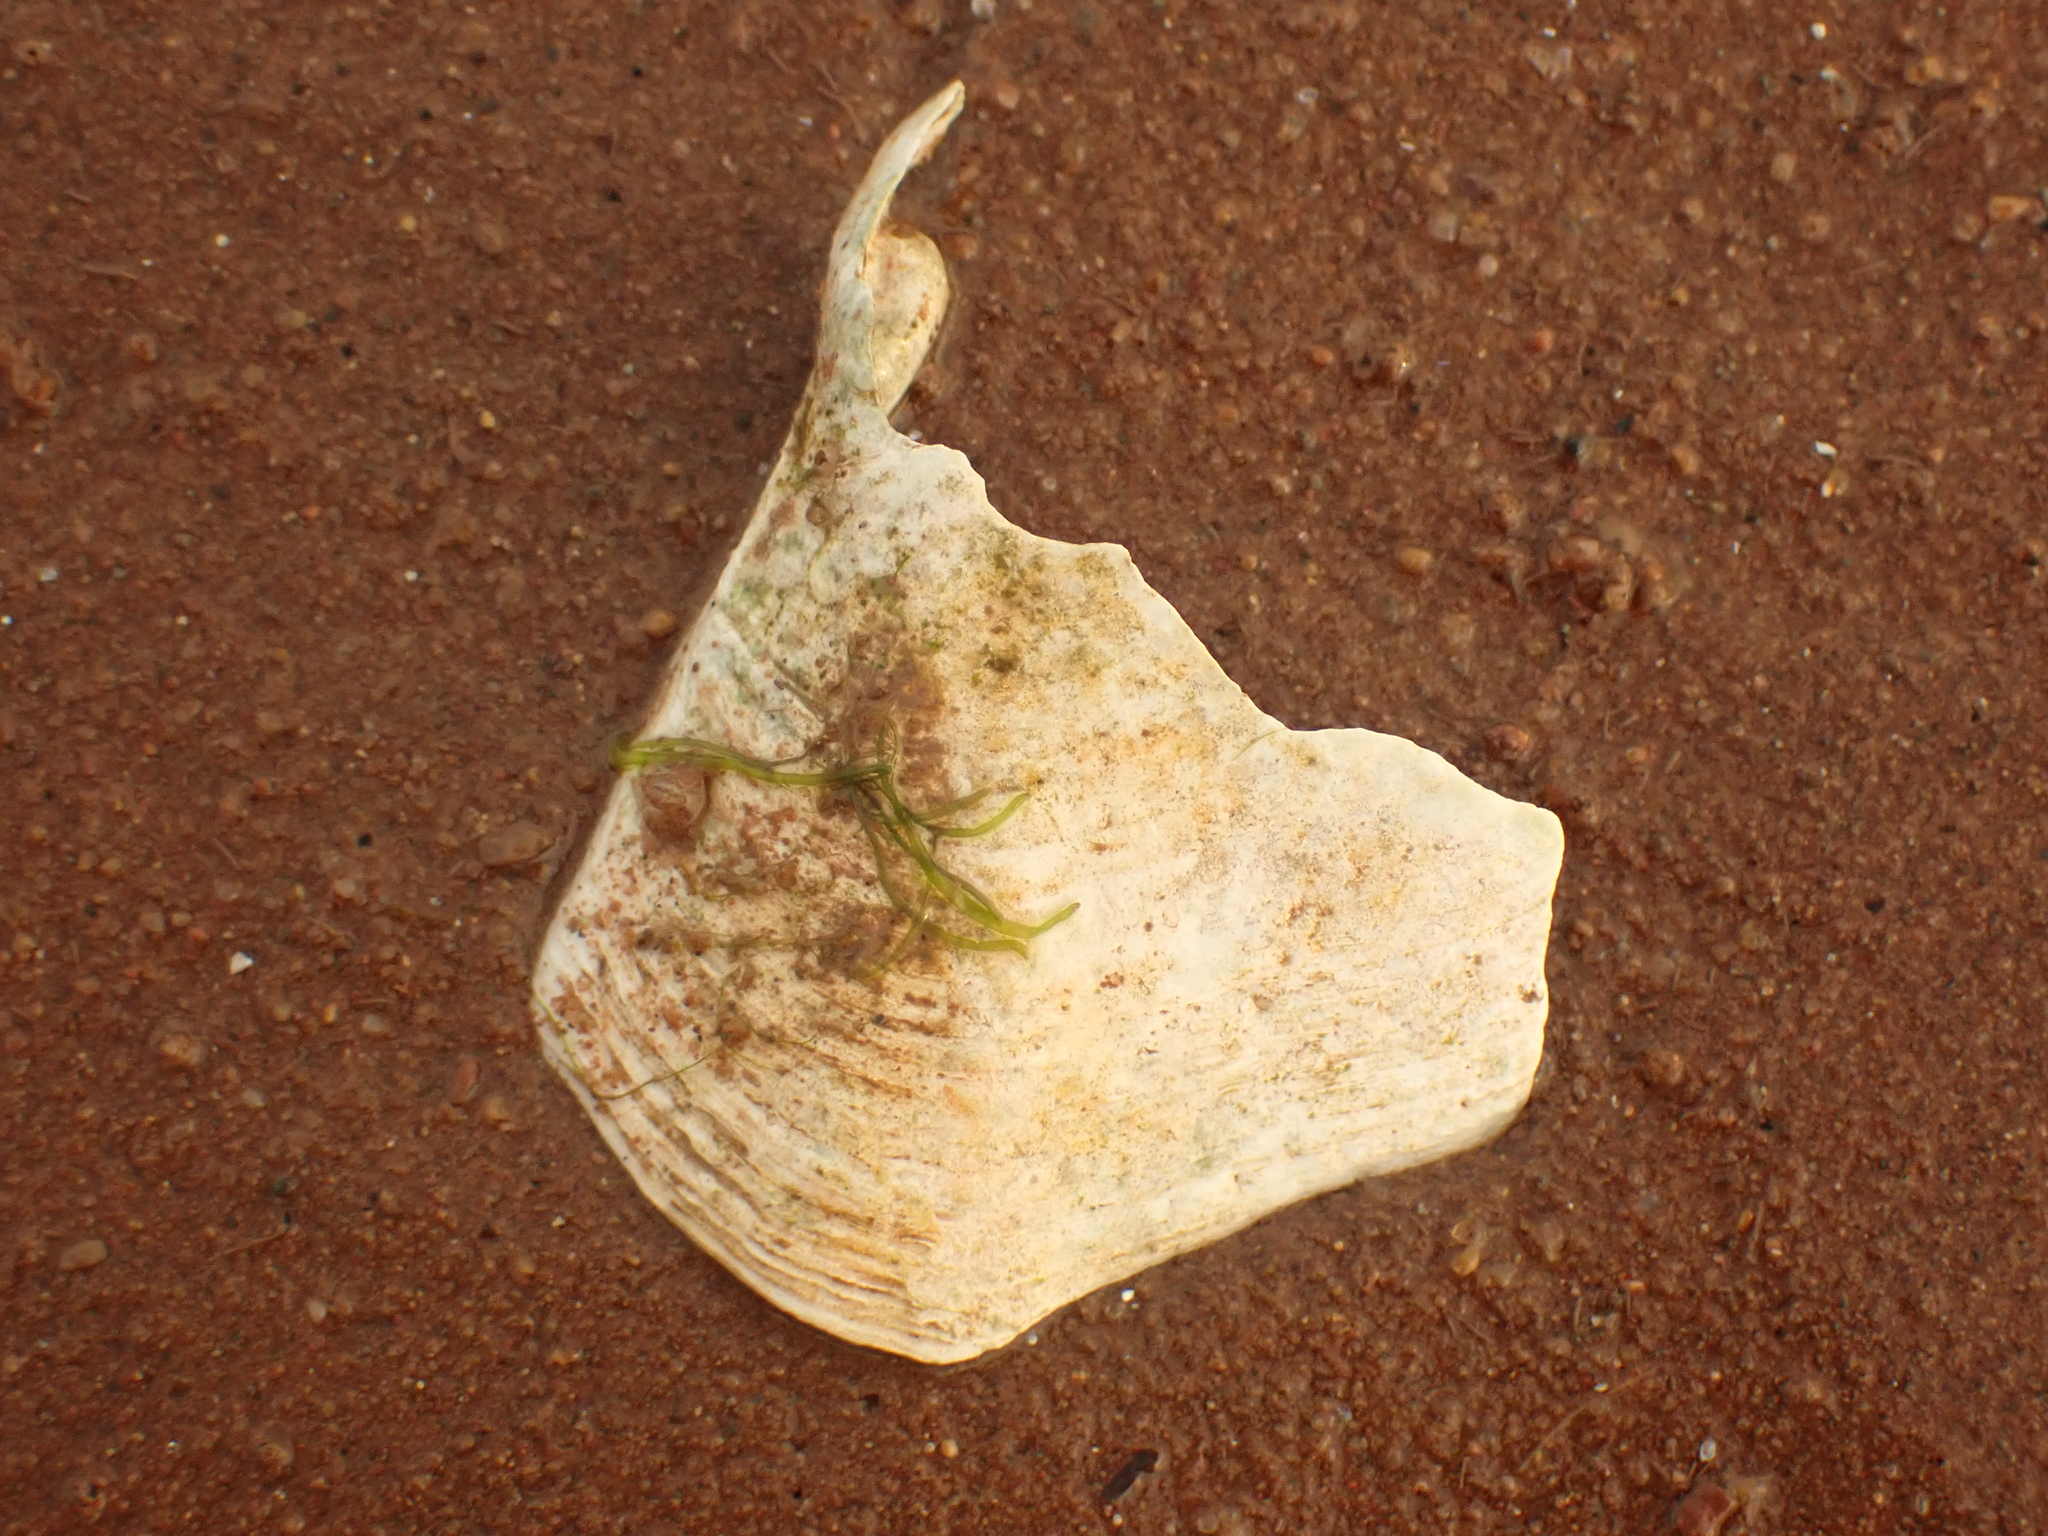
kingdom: Animalia
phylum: Mollusca
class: Bivalvia
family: Thraciidae
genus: Thracia
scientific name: Thracia conradi
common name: Conrad thracia
